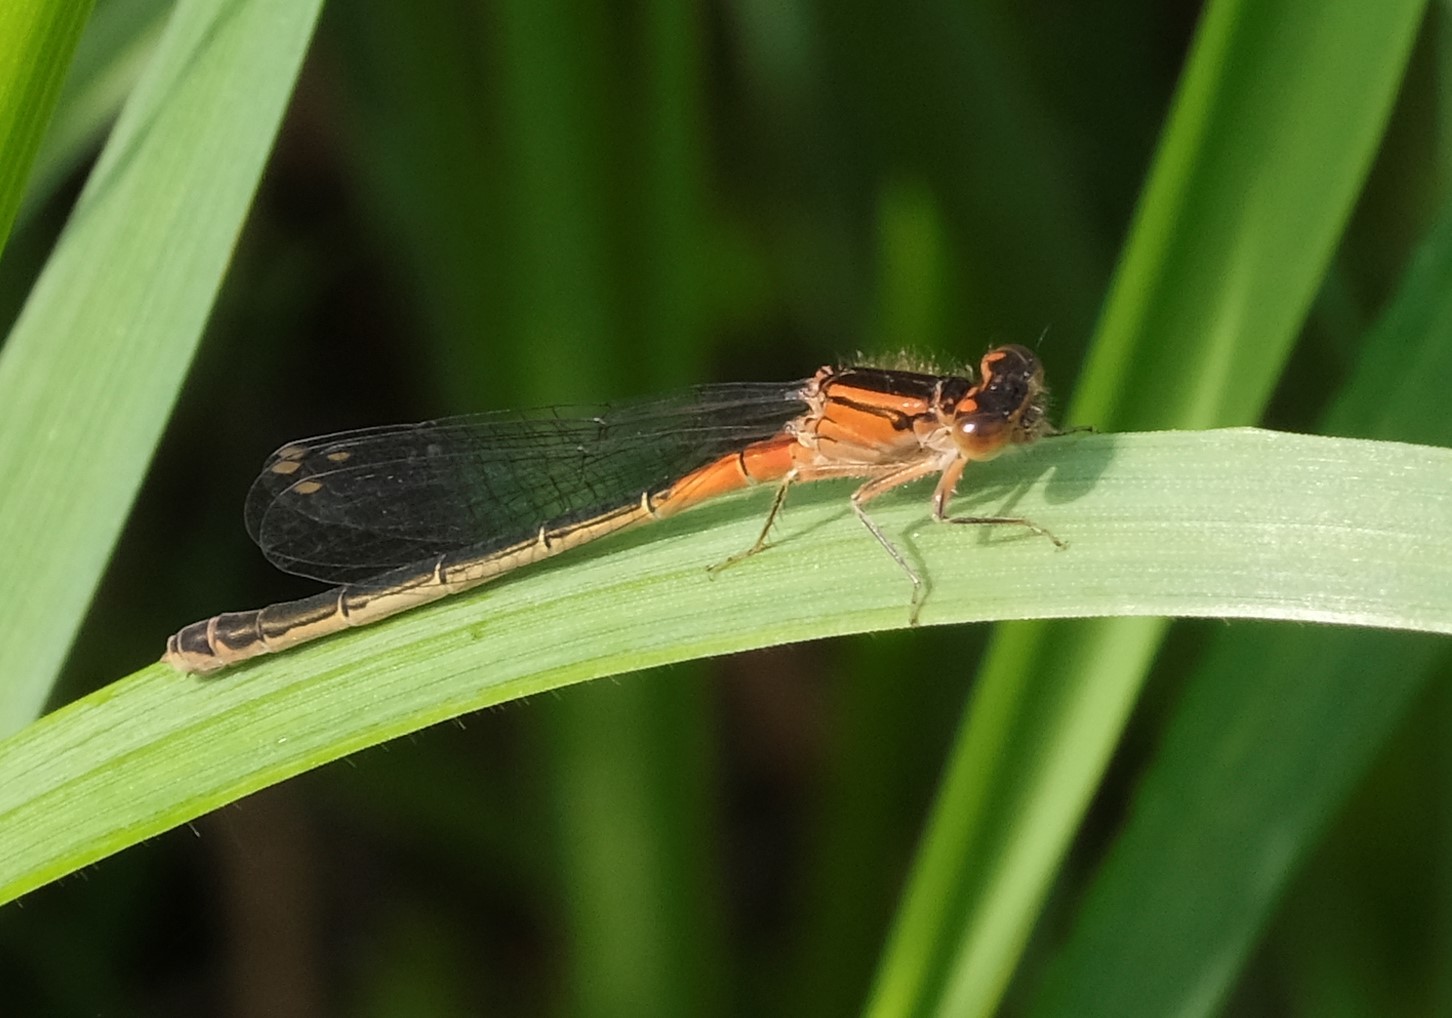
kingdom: Animalia
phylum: Arthropoda
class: Insecta
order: Odonata
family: Coenagrionidae
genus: Ischnura
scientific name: Ischnura verticalis
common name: Eastern forktail
